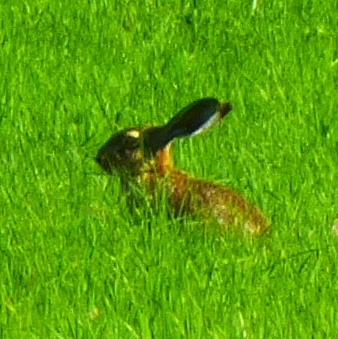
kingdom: Animalia
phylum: Chordata
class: Mammalia
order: Lagomorpha
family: Leporidae
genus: Lepus
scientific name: Lepus europaeus
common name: European hare
